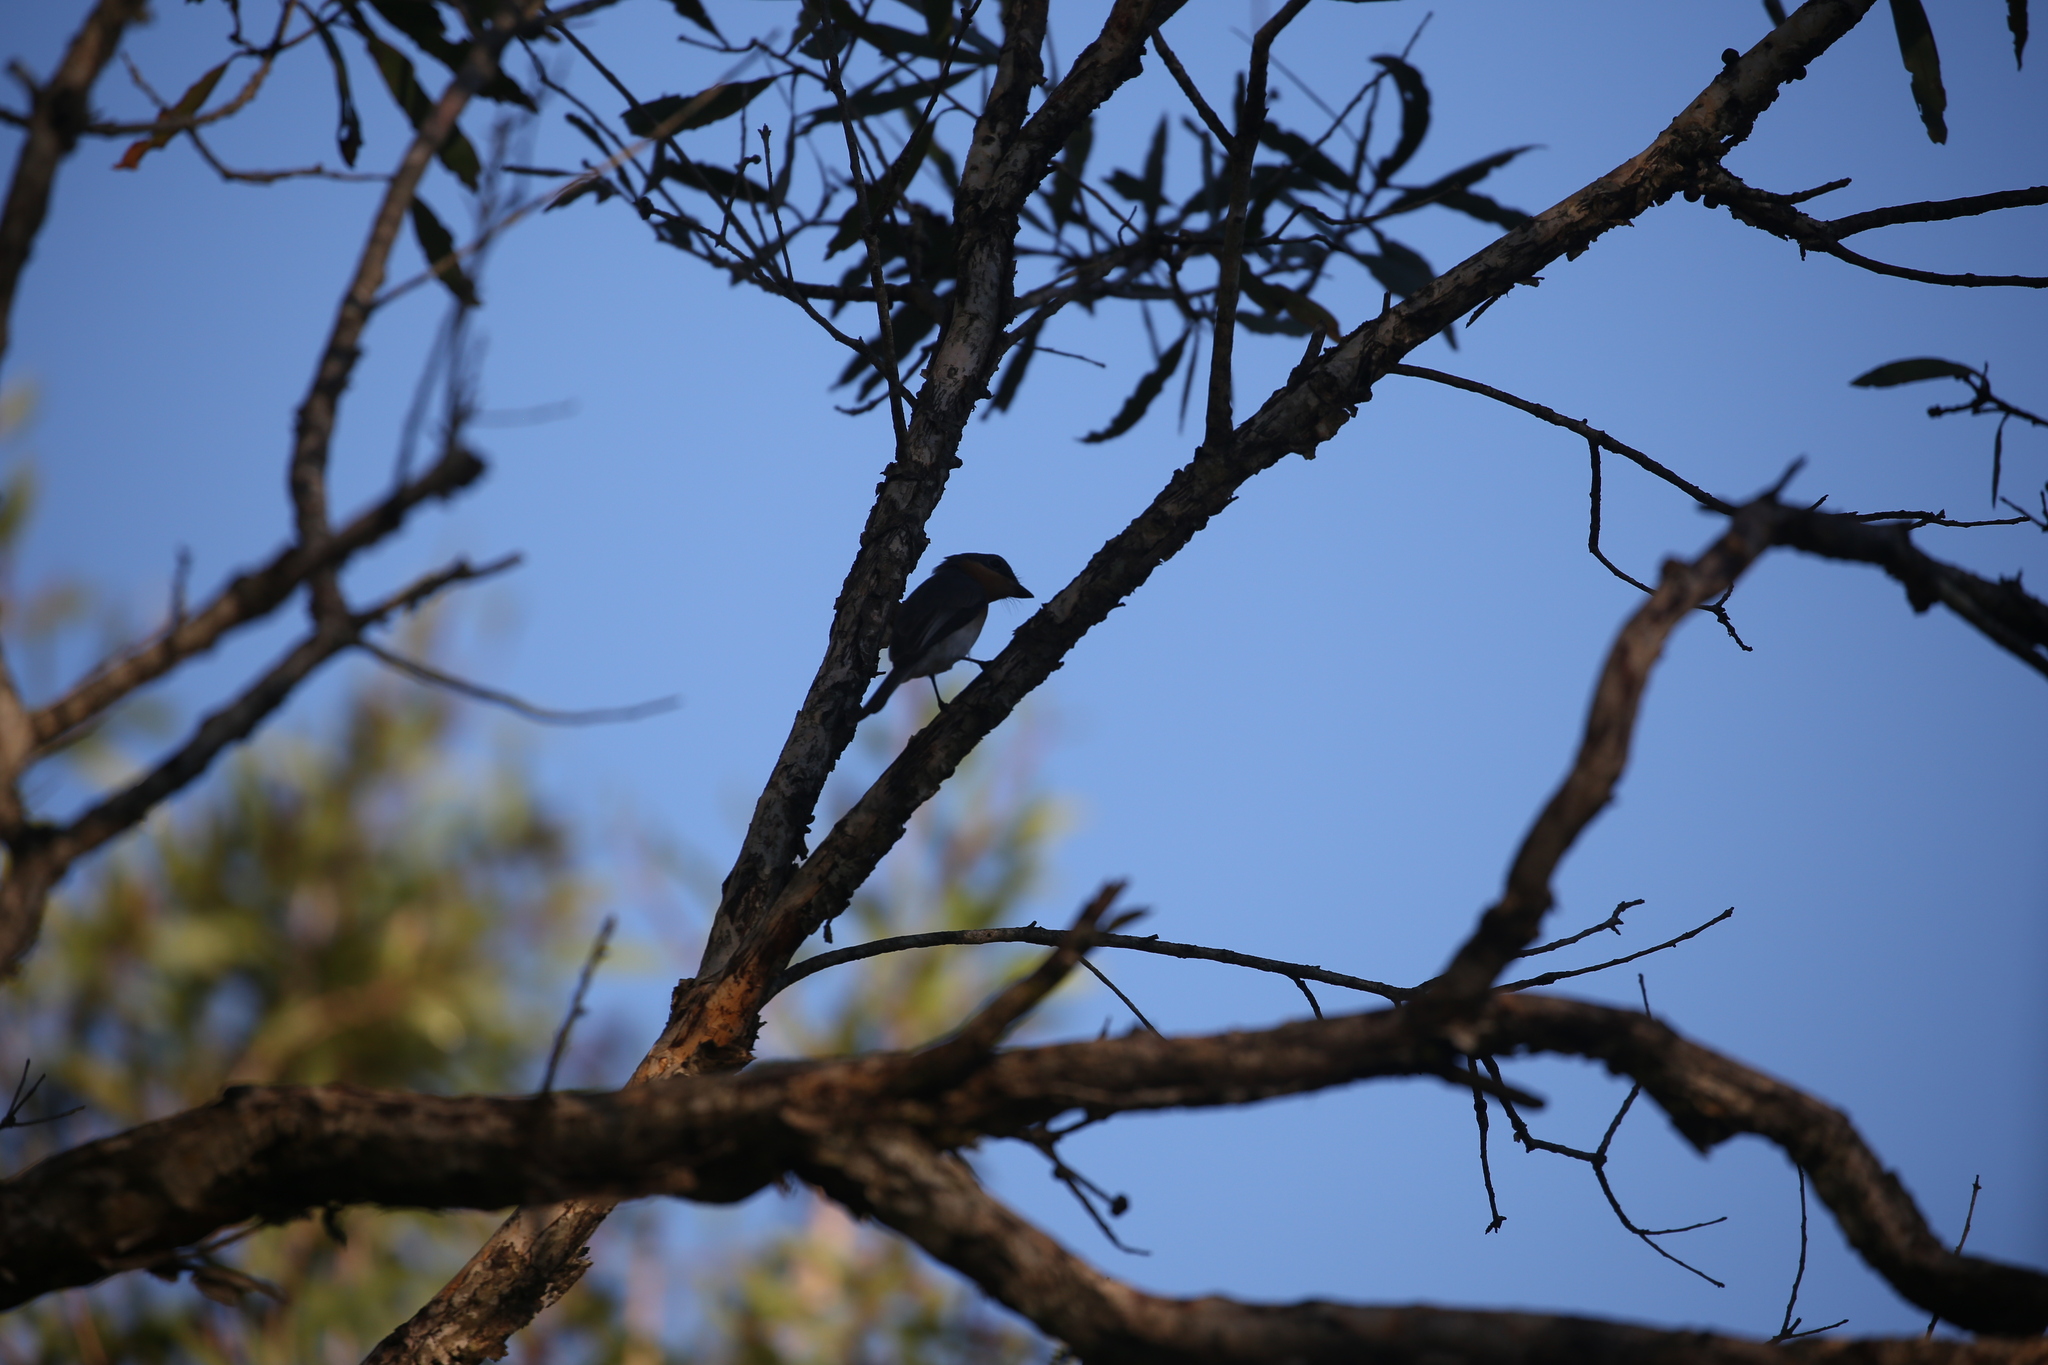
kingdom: Animalia
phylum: Chordata
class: Aves
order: Passeriformes
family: Monarchidae
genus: Myiagra
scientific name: Myiagra rubecula
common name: Leaden flycatcher
